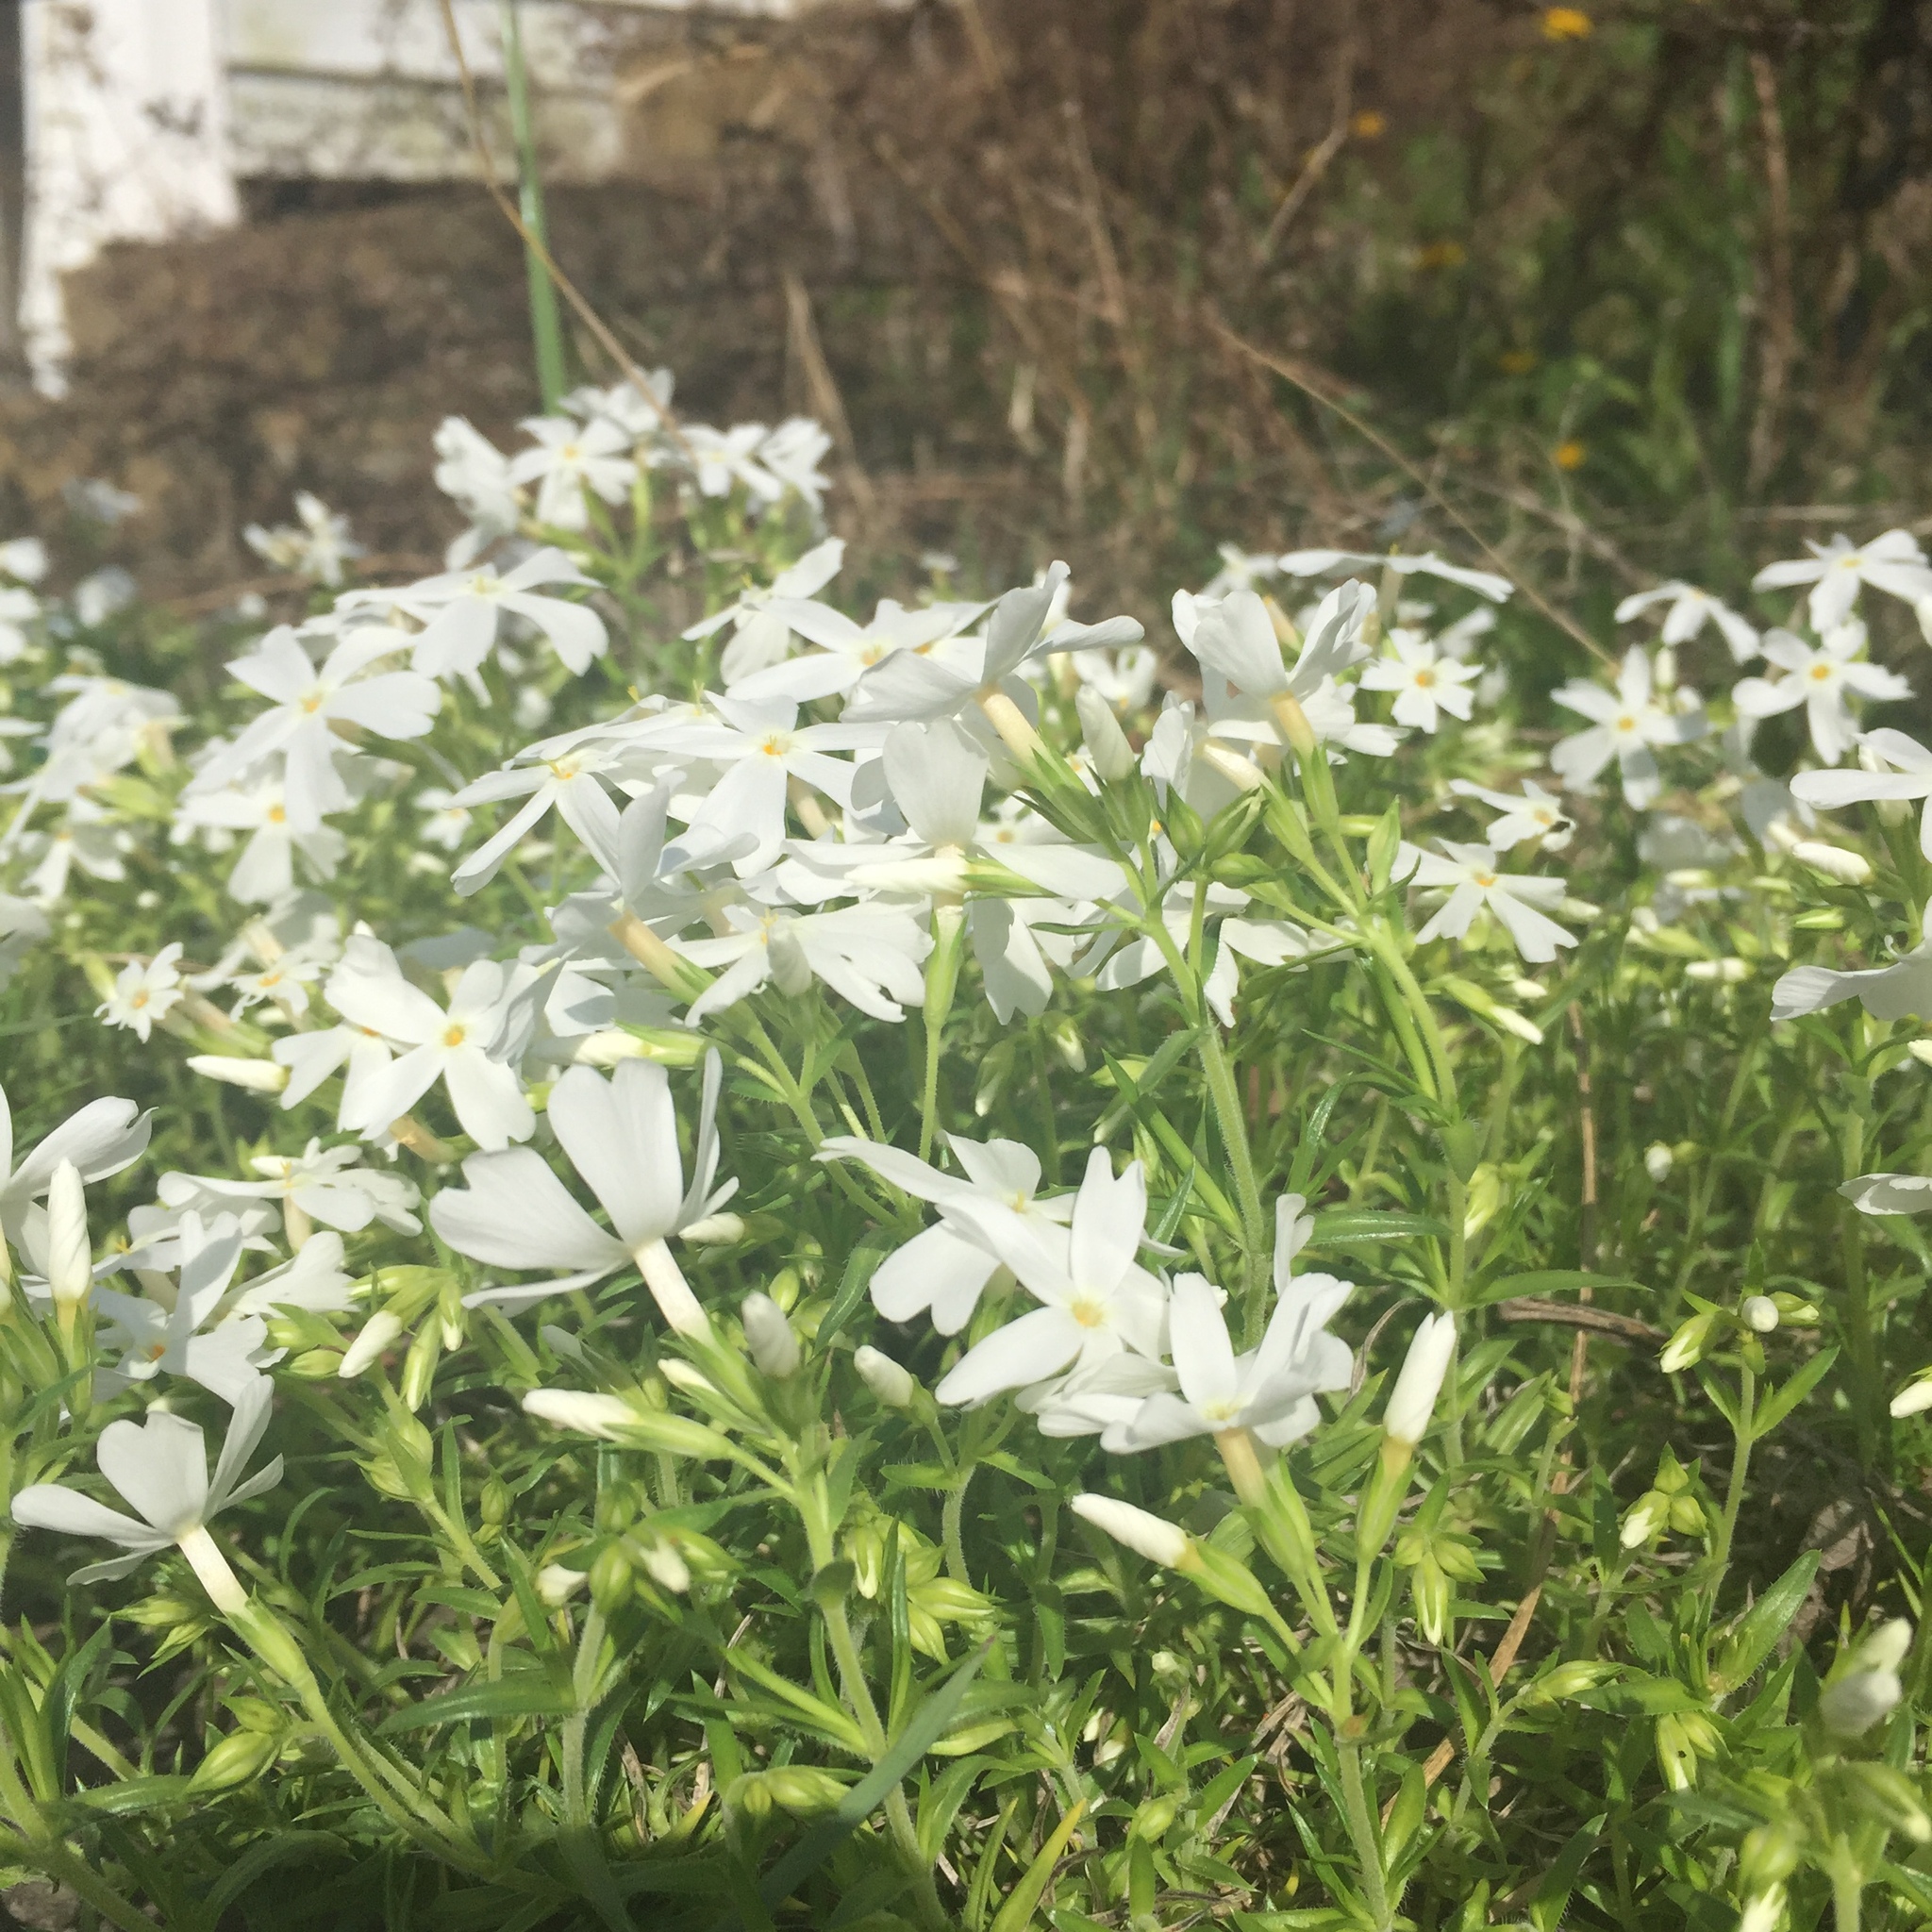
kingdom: Plantae
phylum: Tracheophyta
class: Magnoliopsida
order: Ericales
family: Polemoniaceae
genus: Phlox
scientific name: Phlox subulata
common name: Moss phlox
